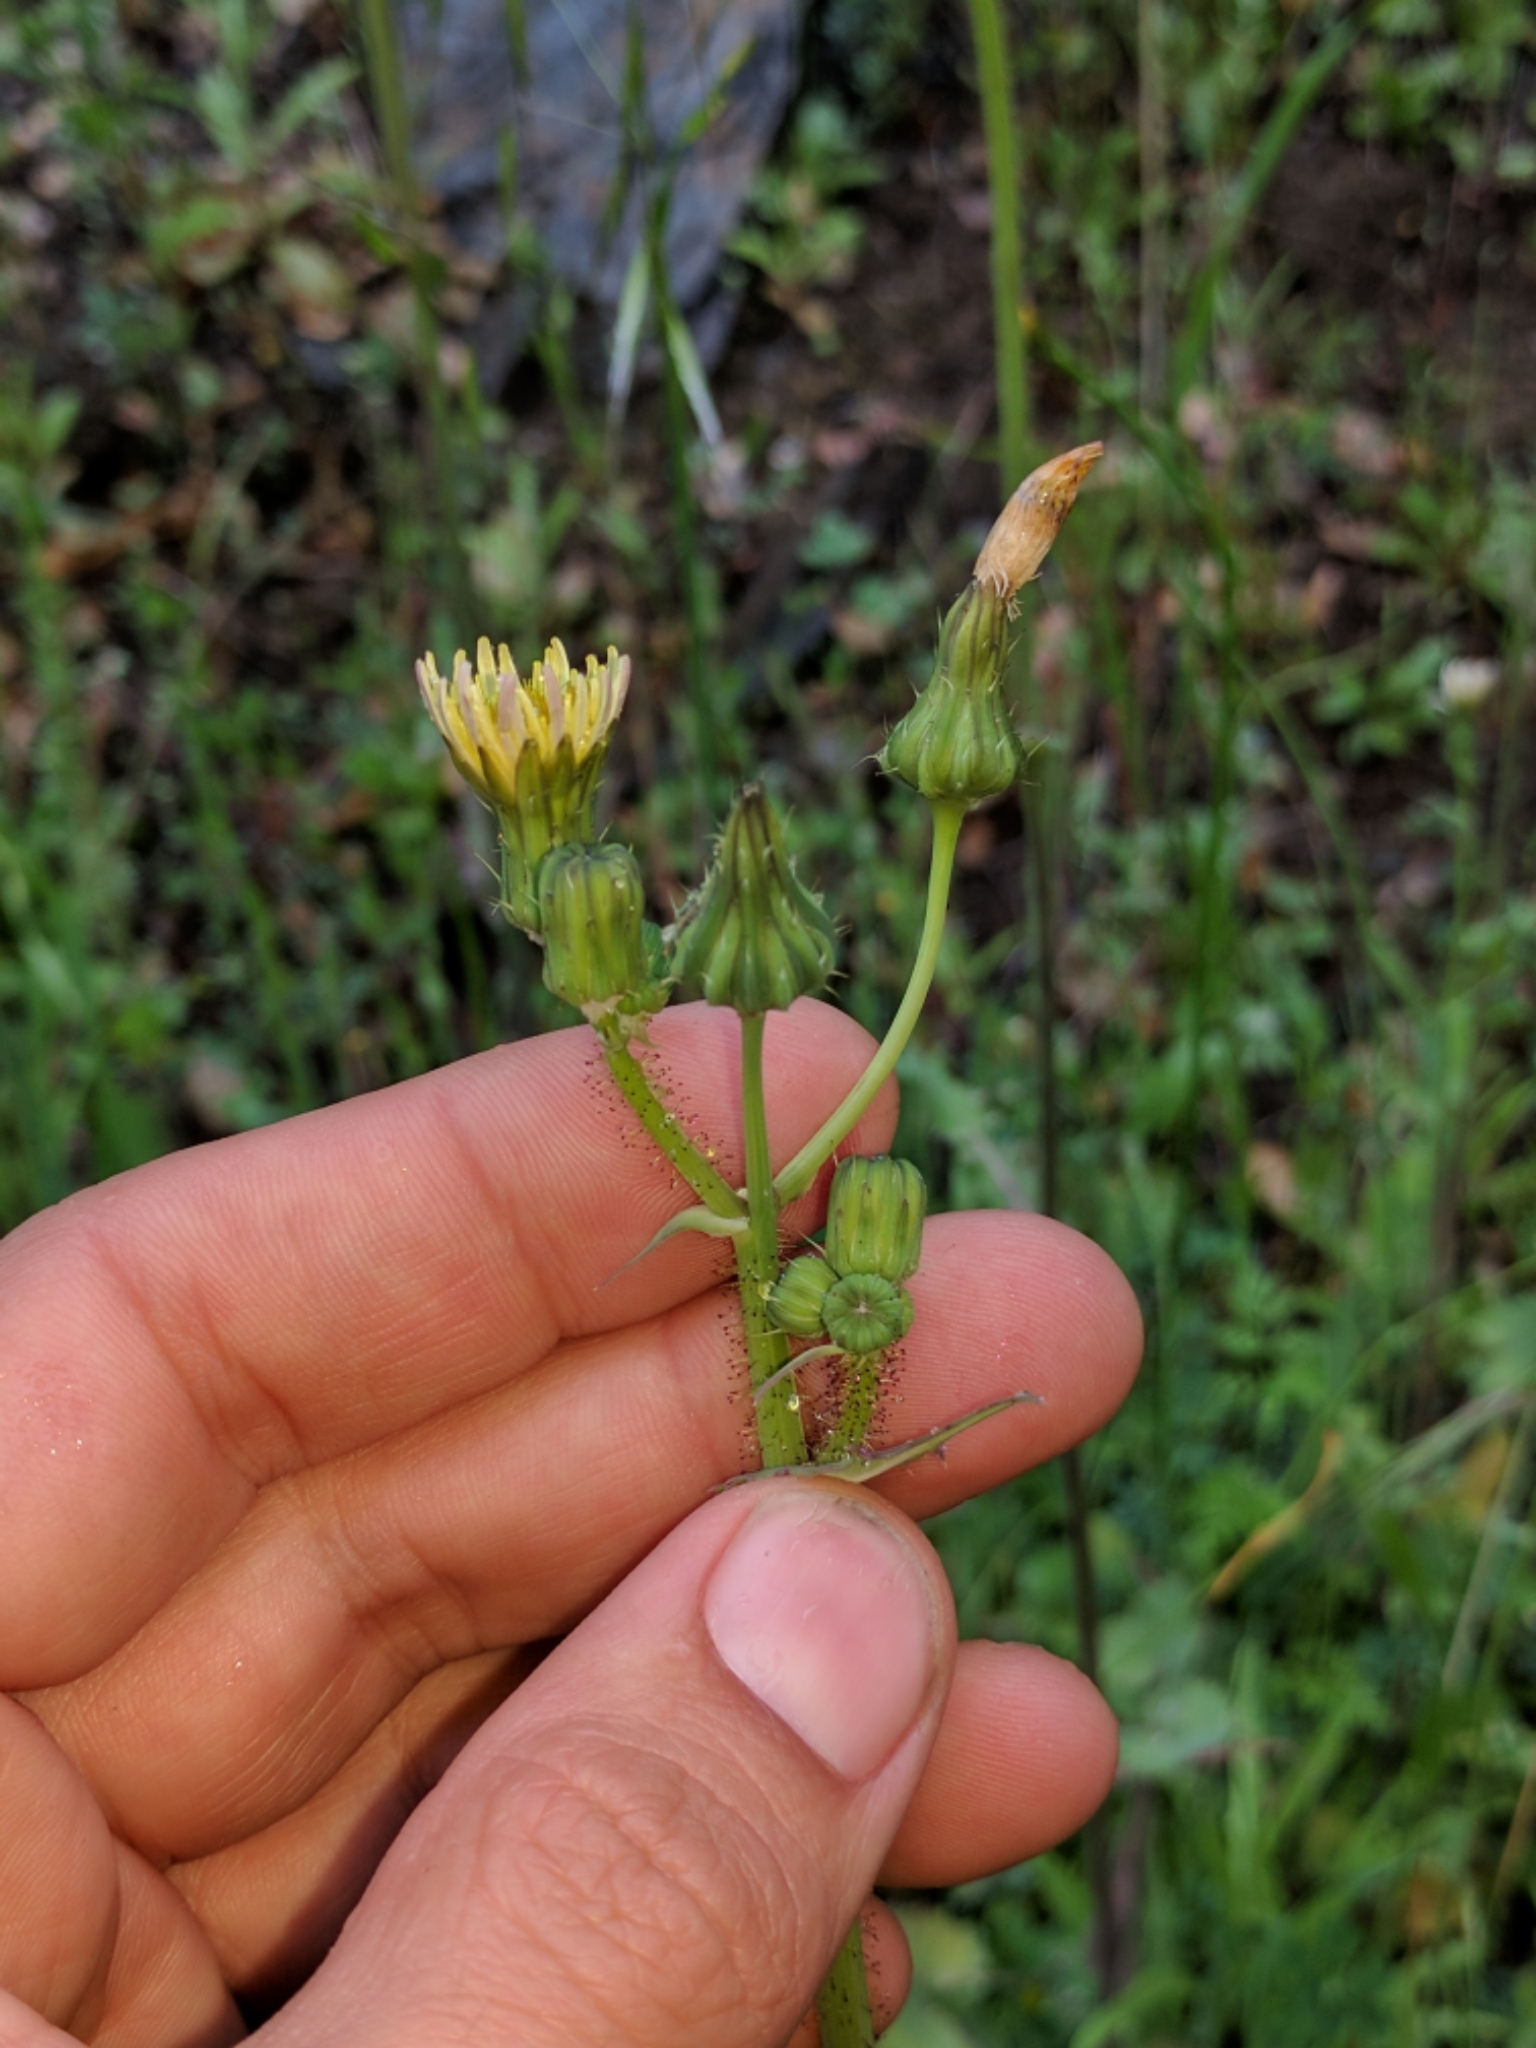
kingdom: Plantae
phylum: Tracheophyta
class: Magnoliopsida
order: Asterales
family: Asteraceae
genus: Sonchus
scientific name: Sonchus oleraceus
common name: Common sowthistle
